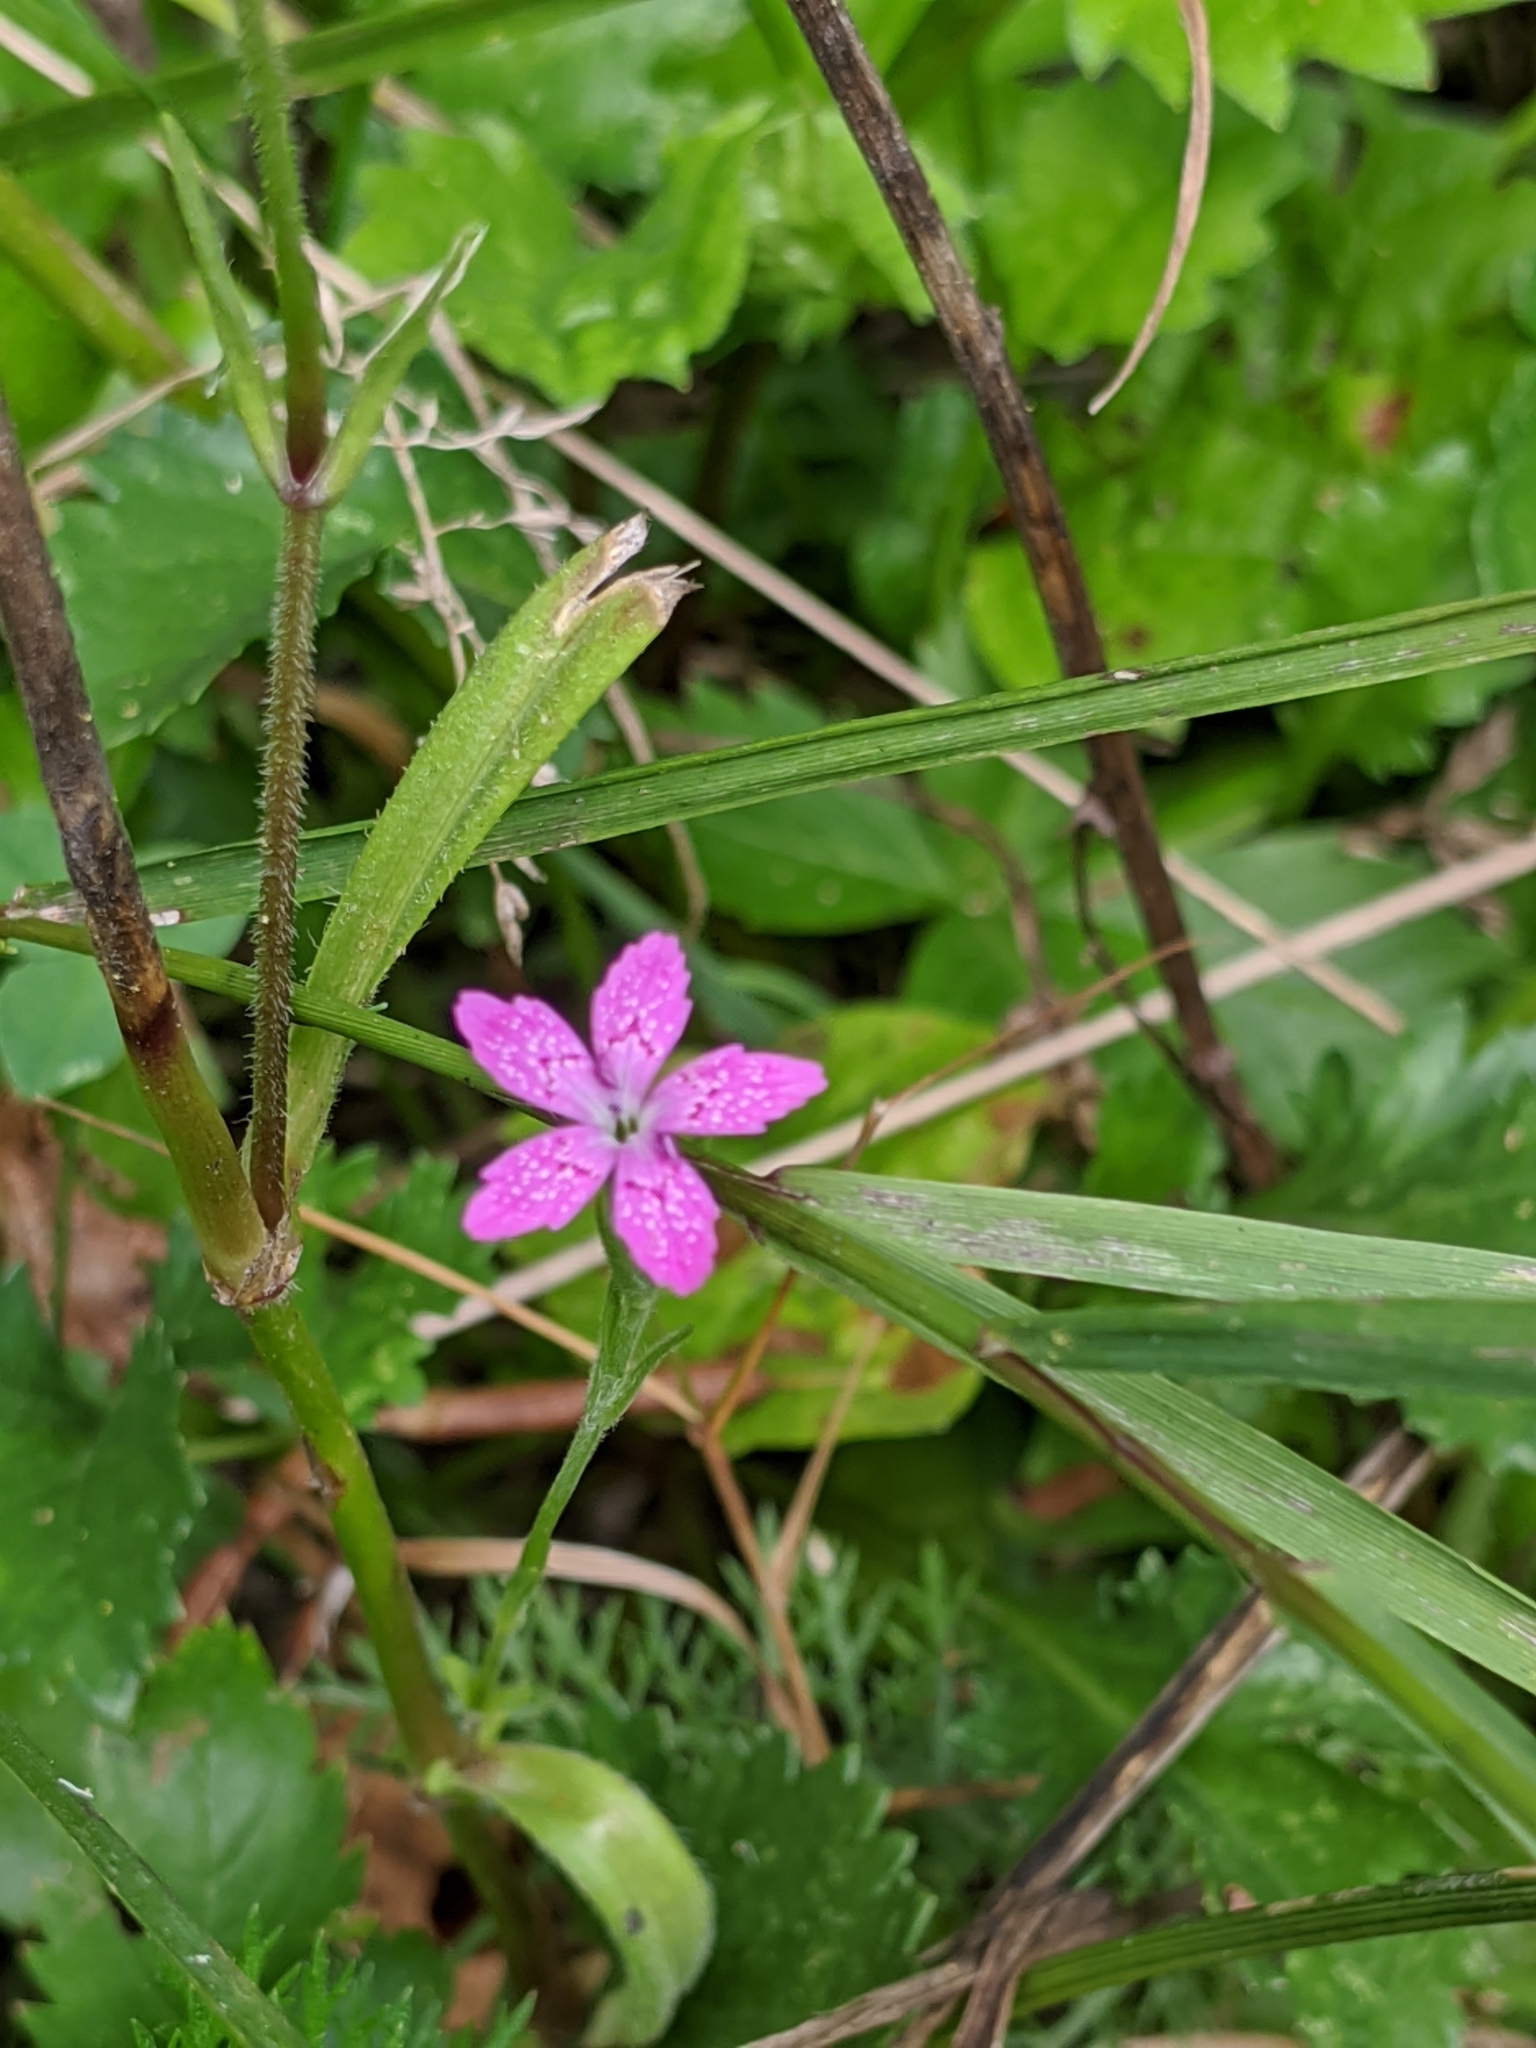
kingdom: Plantae
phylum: Tracheophyta
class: Magnoliopsida
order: Caryophyllales
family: Caryophyllaceae
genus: Dianthus
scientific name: Dianthus armeria
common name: Deptford pink
